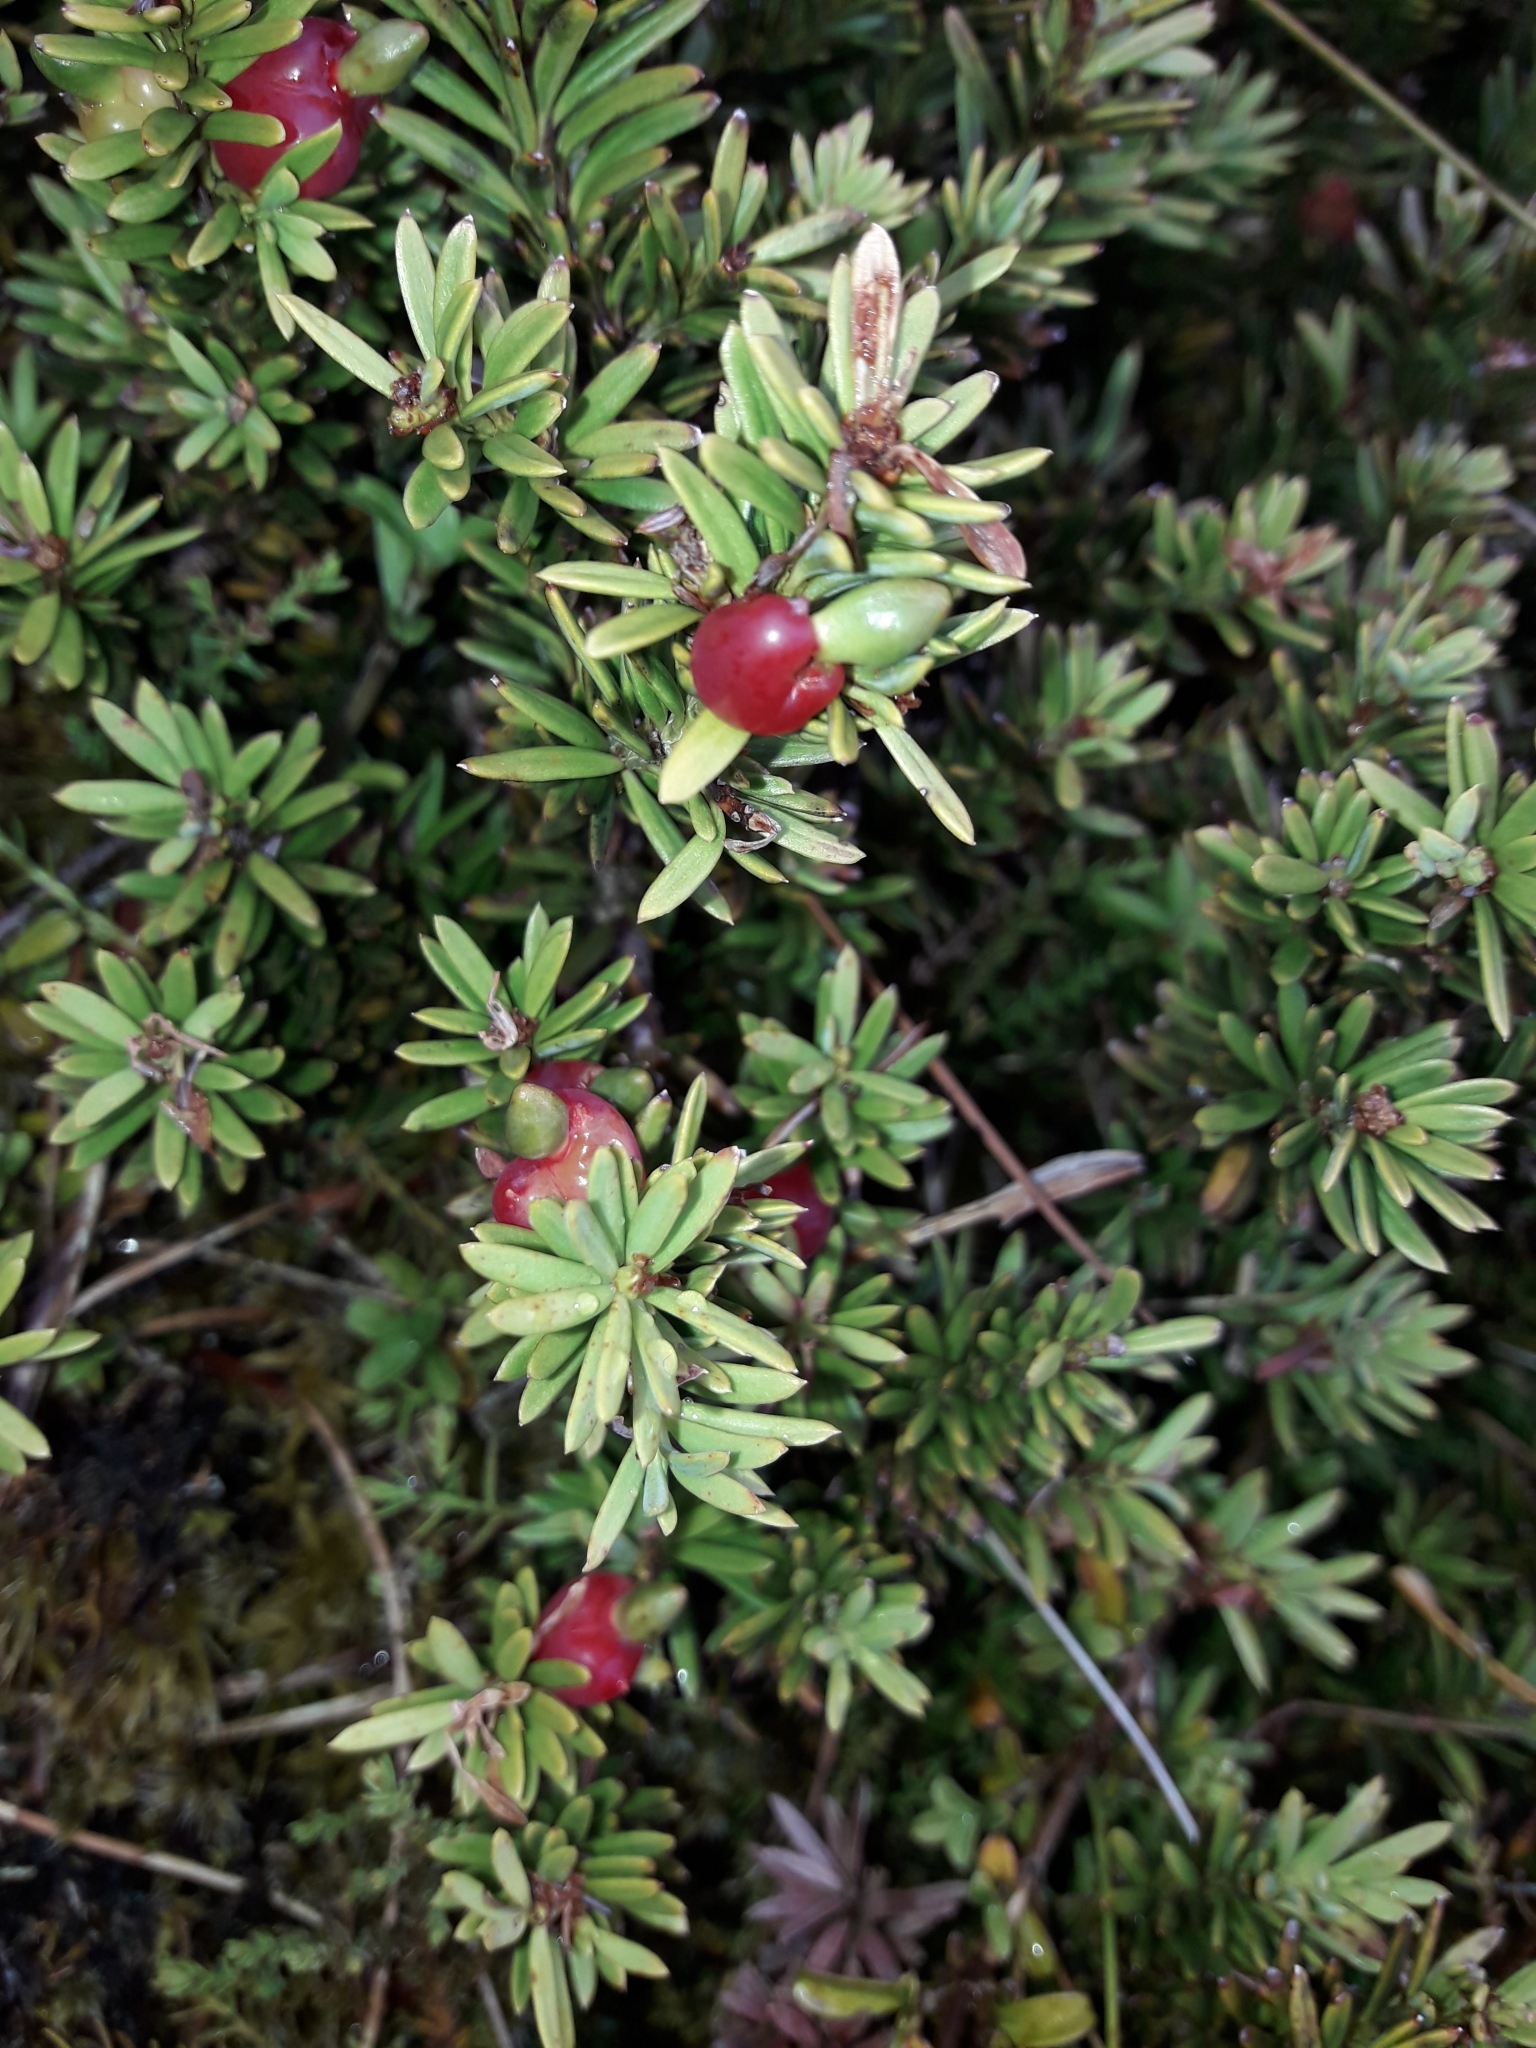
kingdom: Plantae
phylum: Tracheophyta
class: Pinopsida
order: Pinales
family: Podocarpaceae
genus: Podocarpus
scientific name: Podocarpus nivalis
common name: Alpine totara
